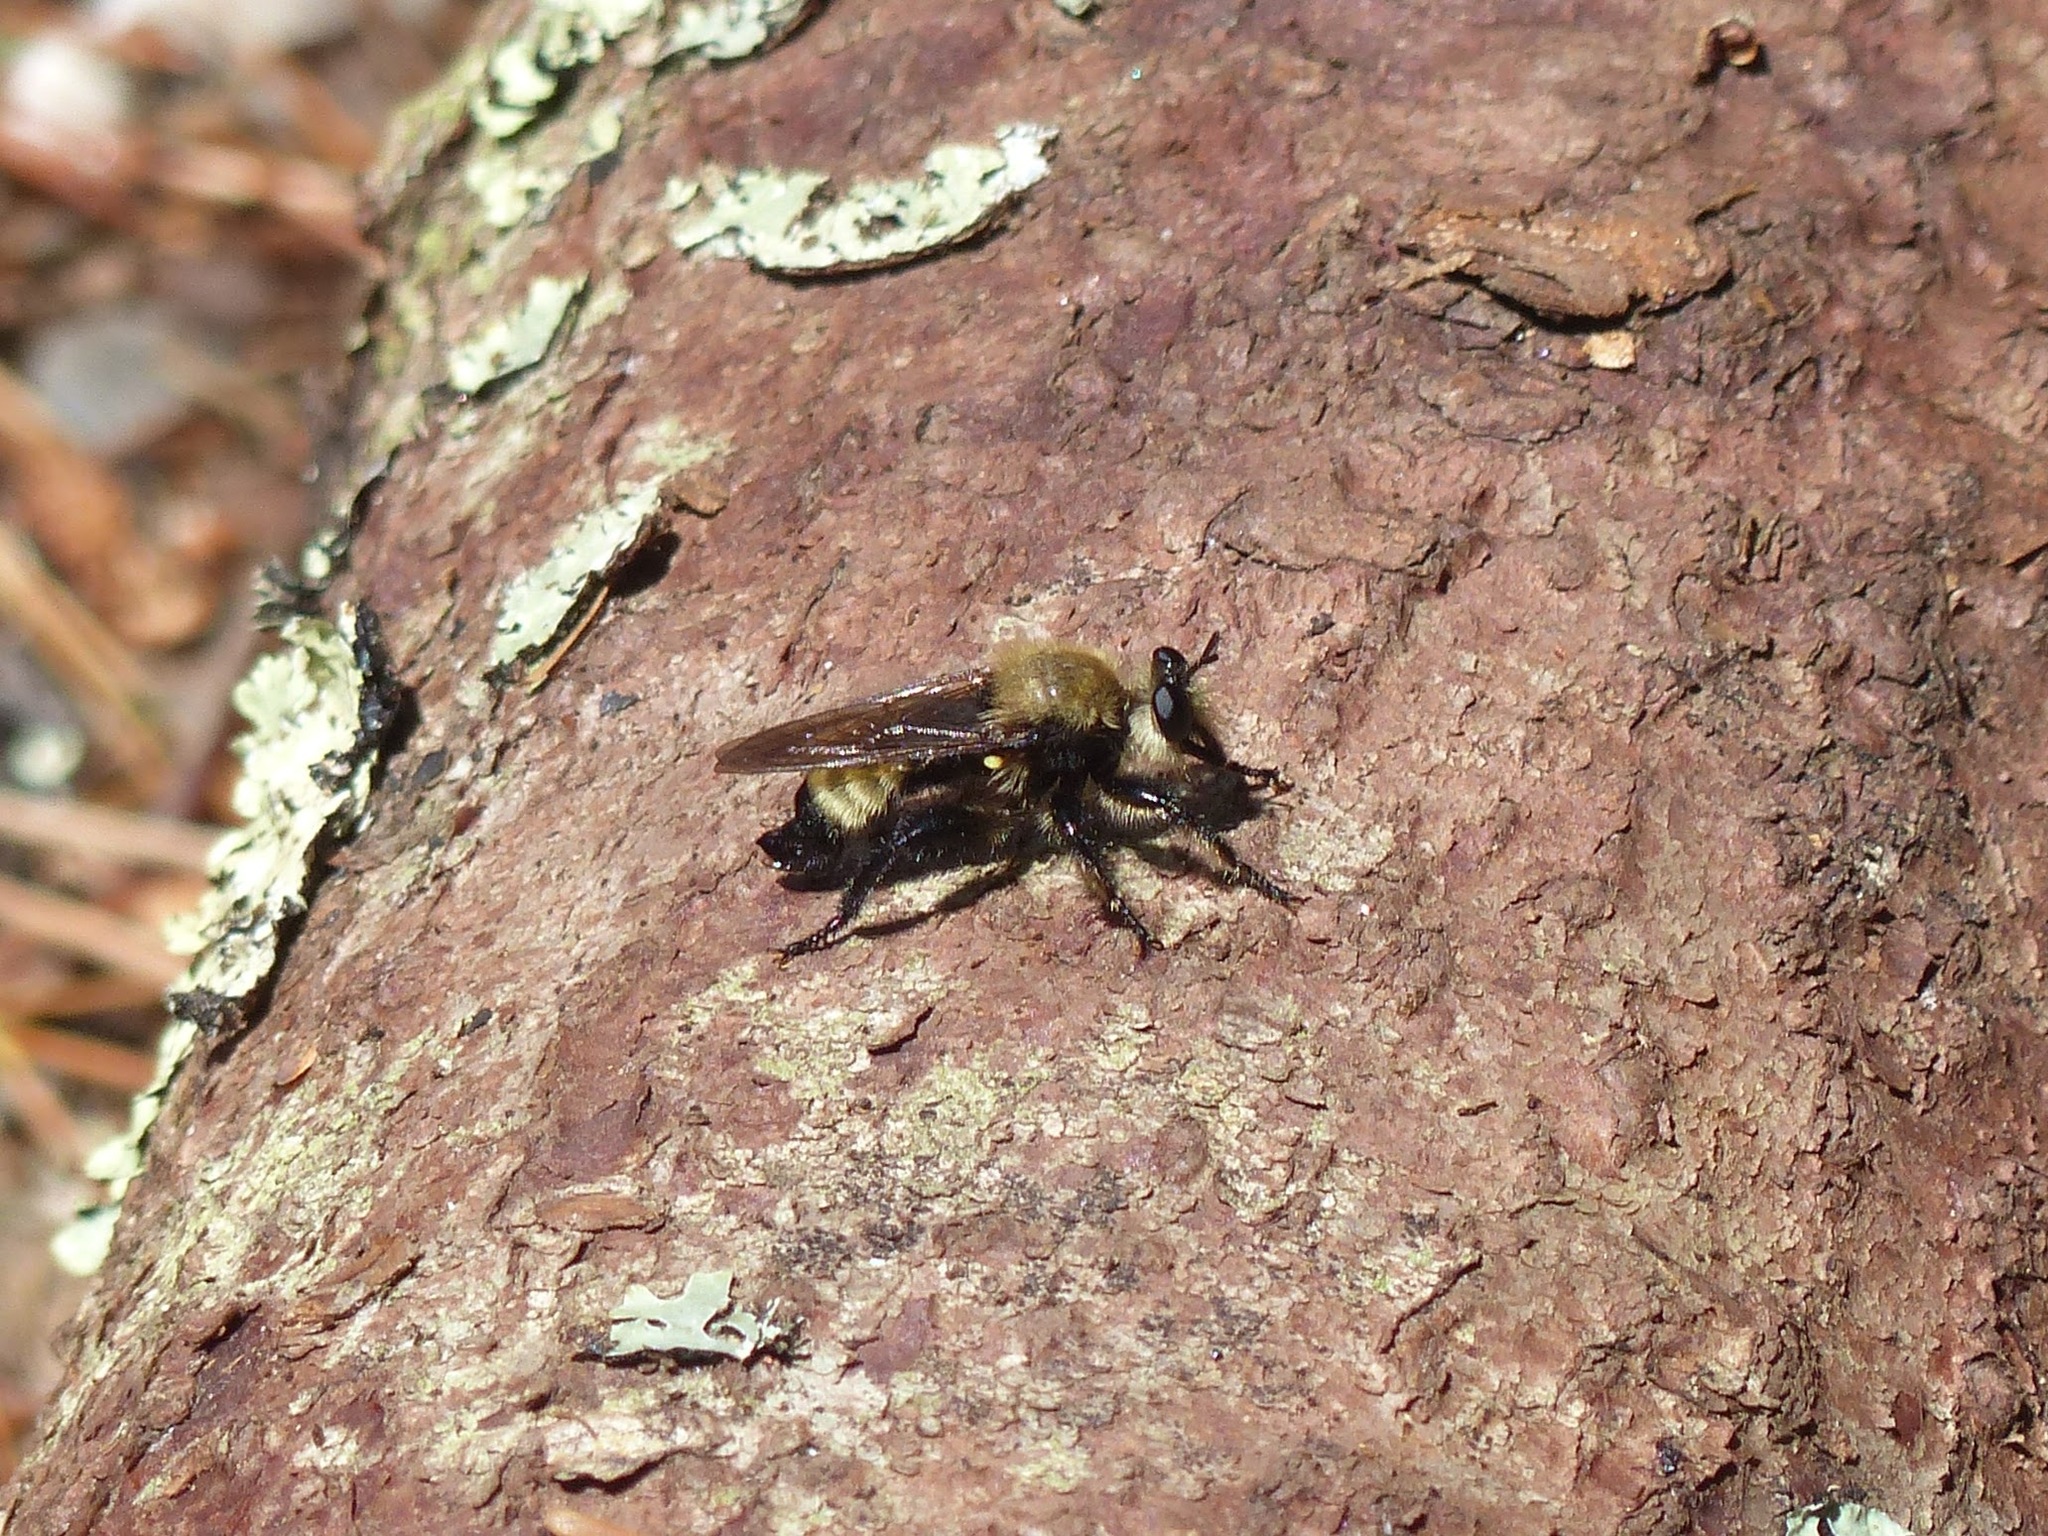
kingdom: Animalia
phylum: Arthropoda
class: Insecta
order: Diptera
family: Asilidae
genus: Laphria
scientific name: Laphria posticata
